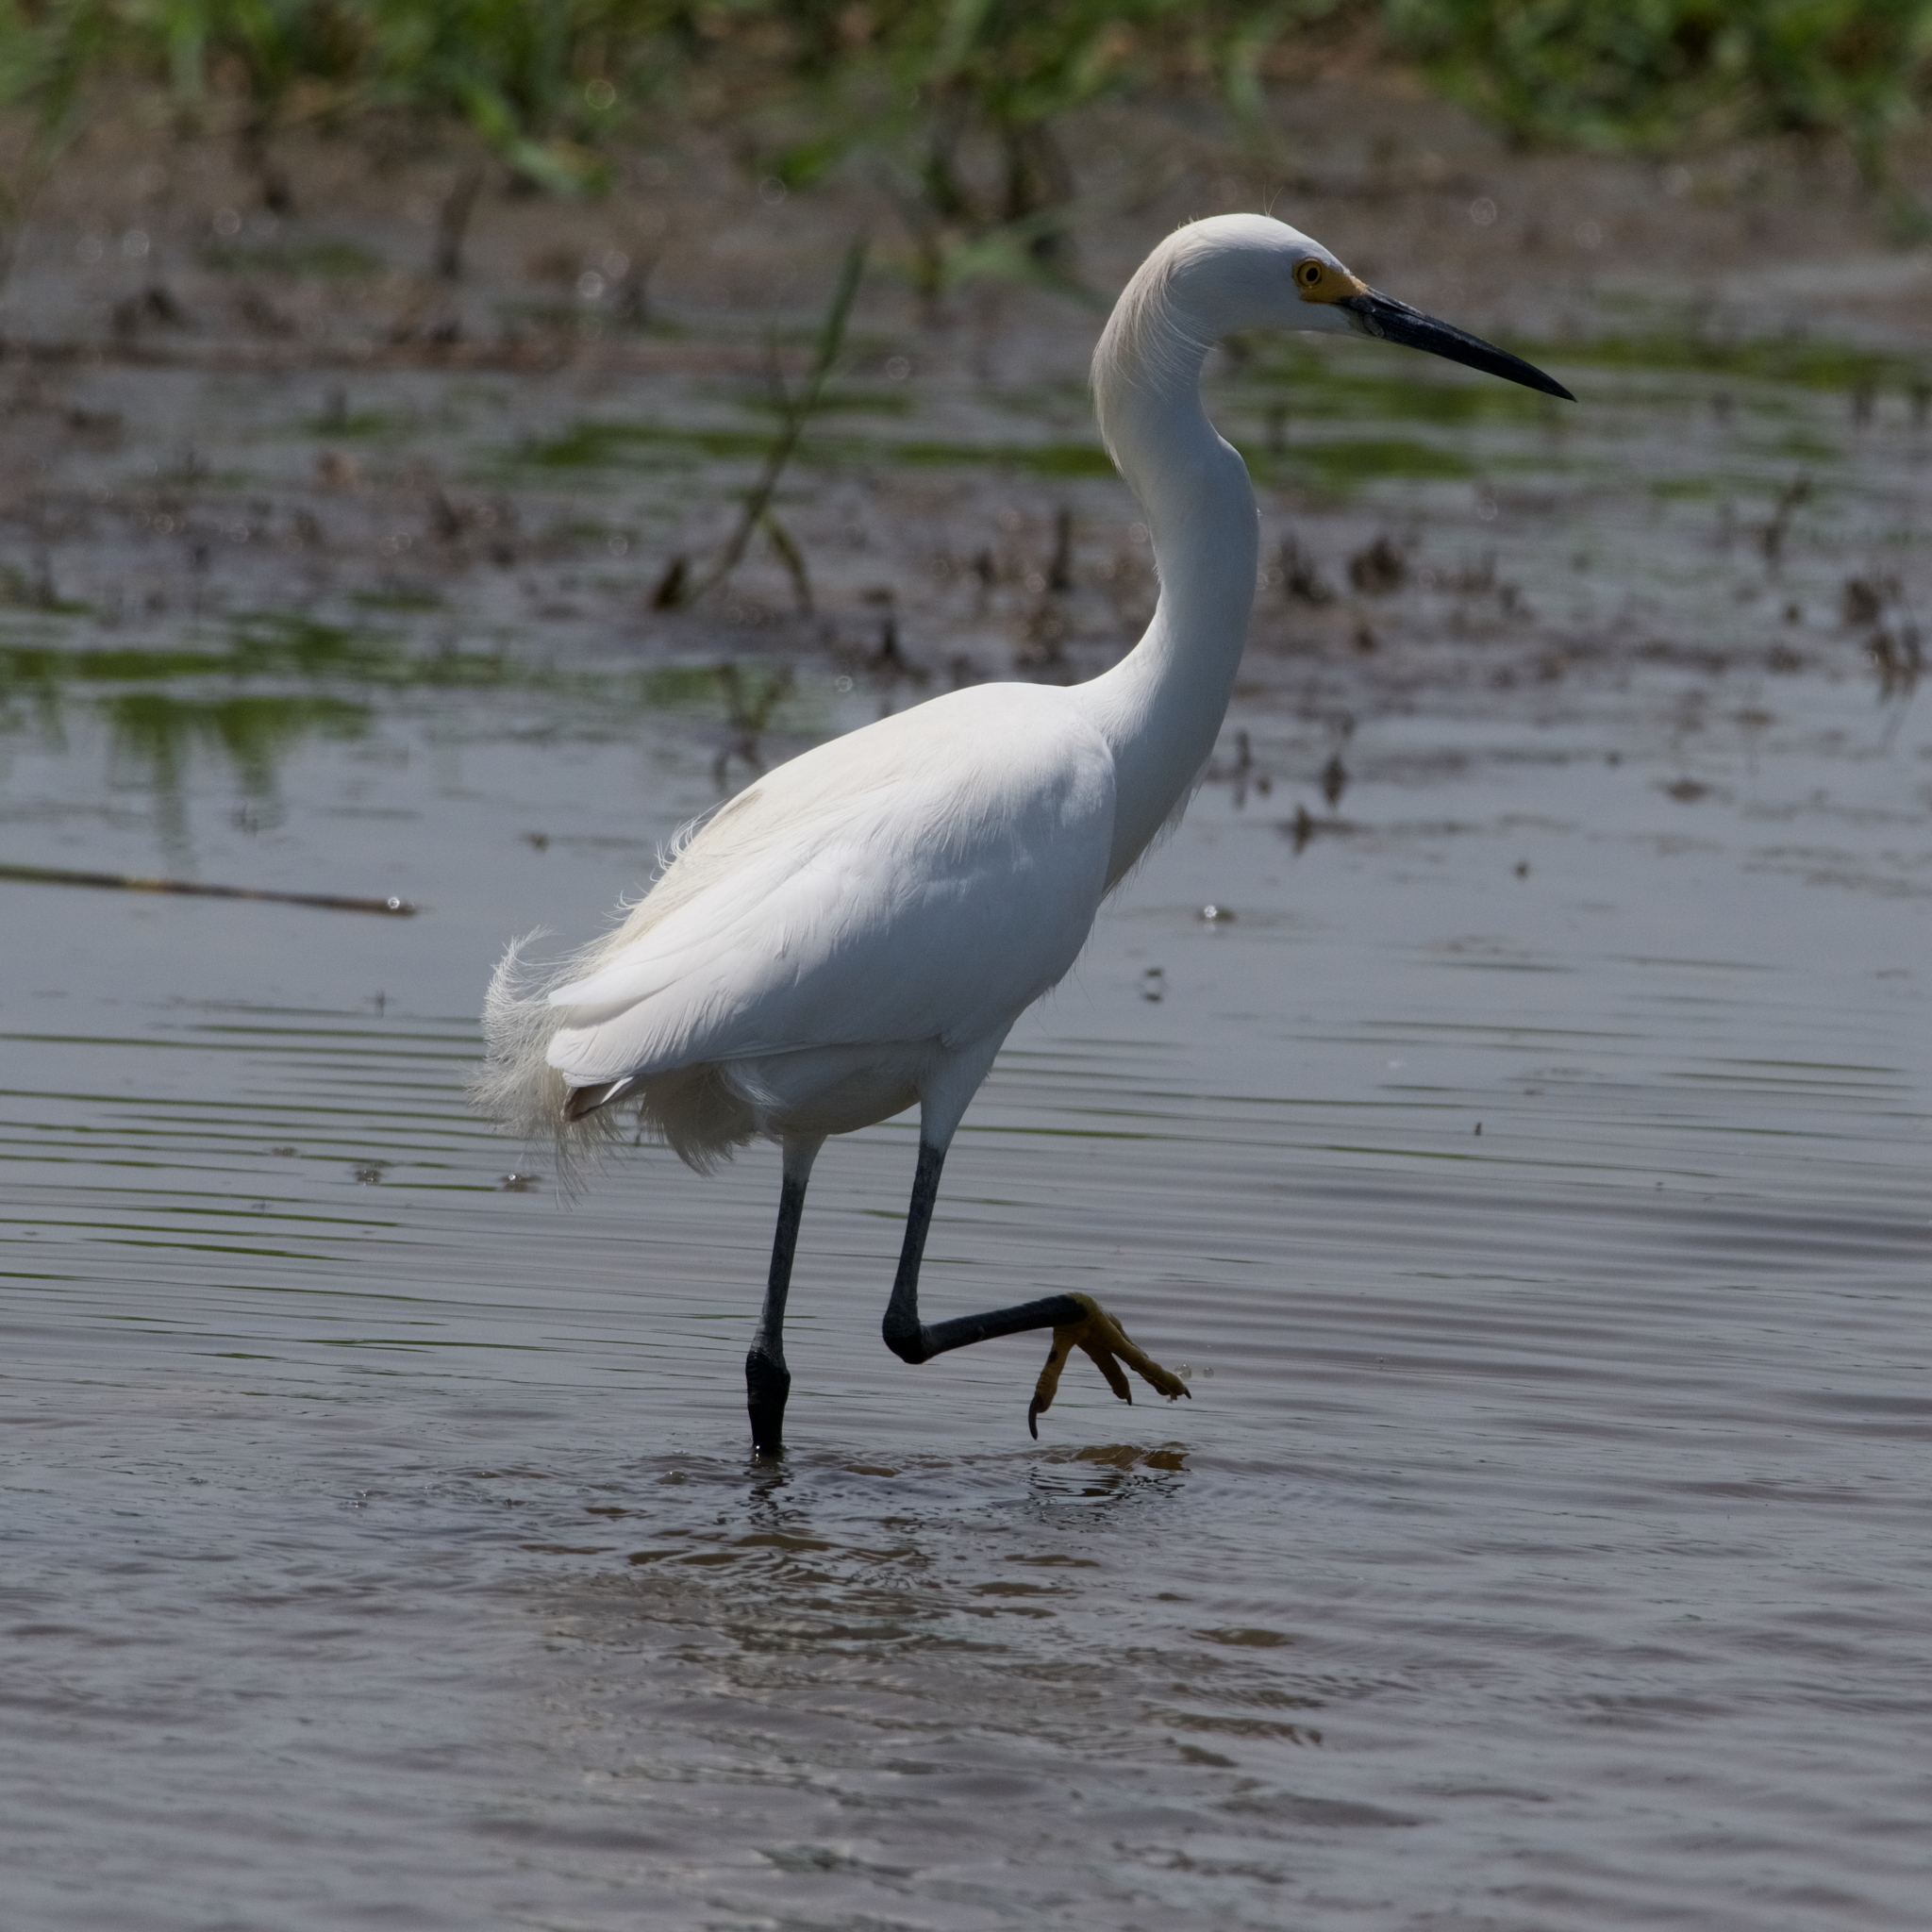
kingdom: Animalia
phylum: Chordata
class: Aves
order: Pelecaniformes
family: Ardeidae
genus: Egretta
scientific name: Egretta thula
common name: Snowy egret
